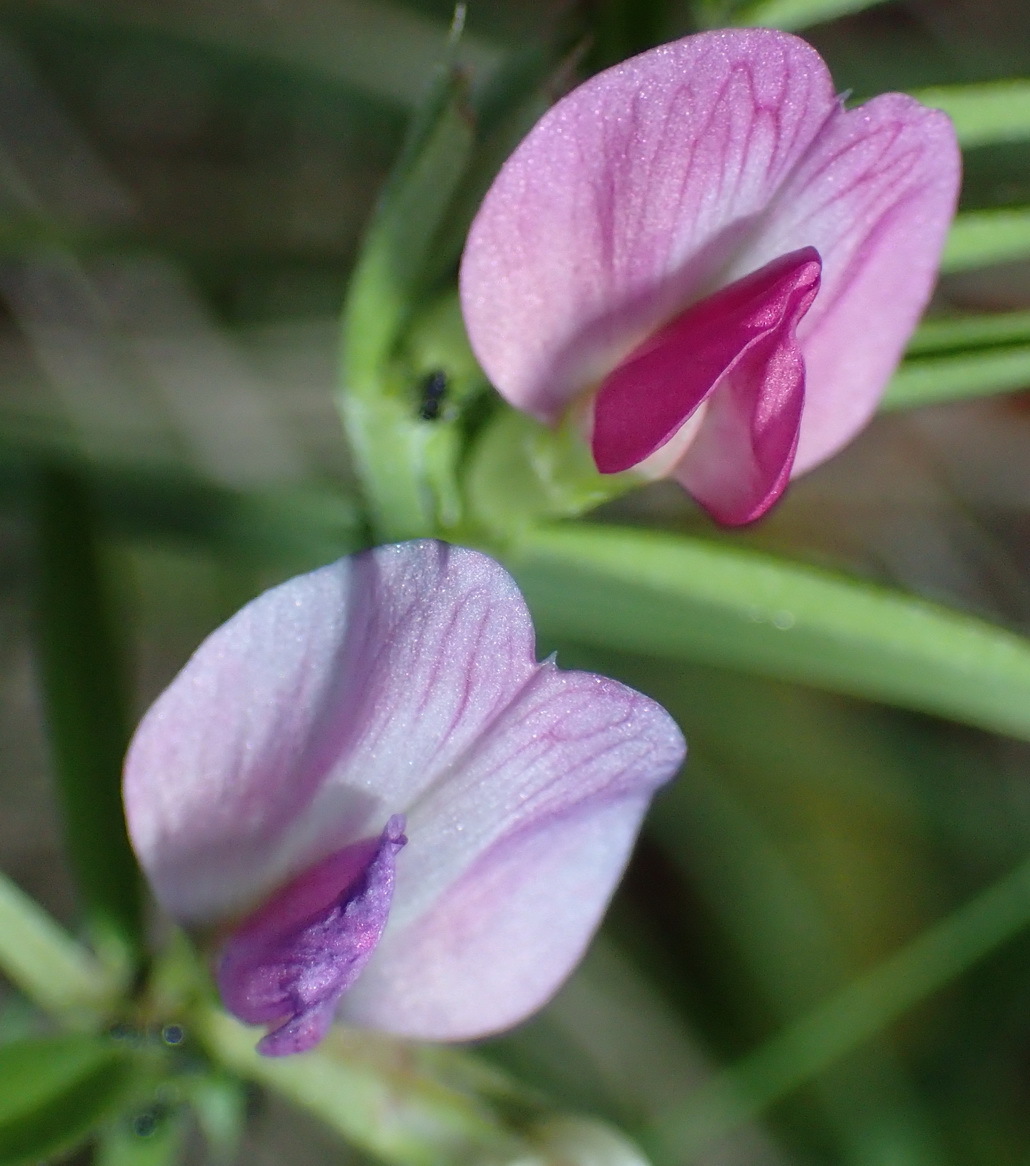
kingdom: Plantae
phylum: Tracheophyta
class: Magnoliopsida
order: Fabales
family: Fabaceae
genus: Vicia
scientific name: Vicia sativa
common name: Garden vetch
